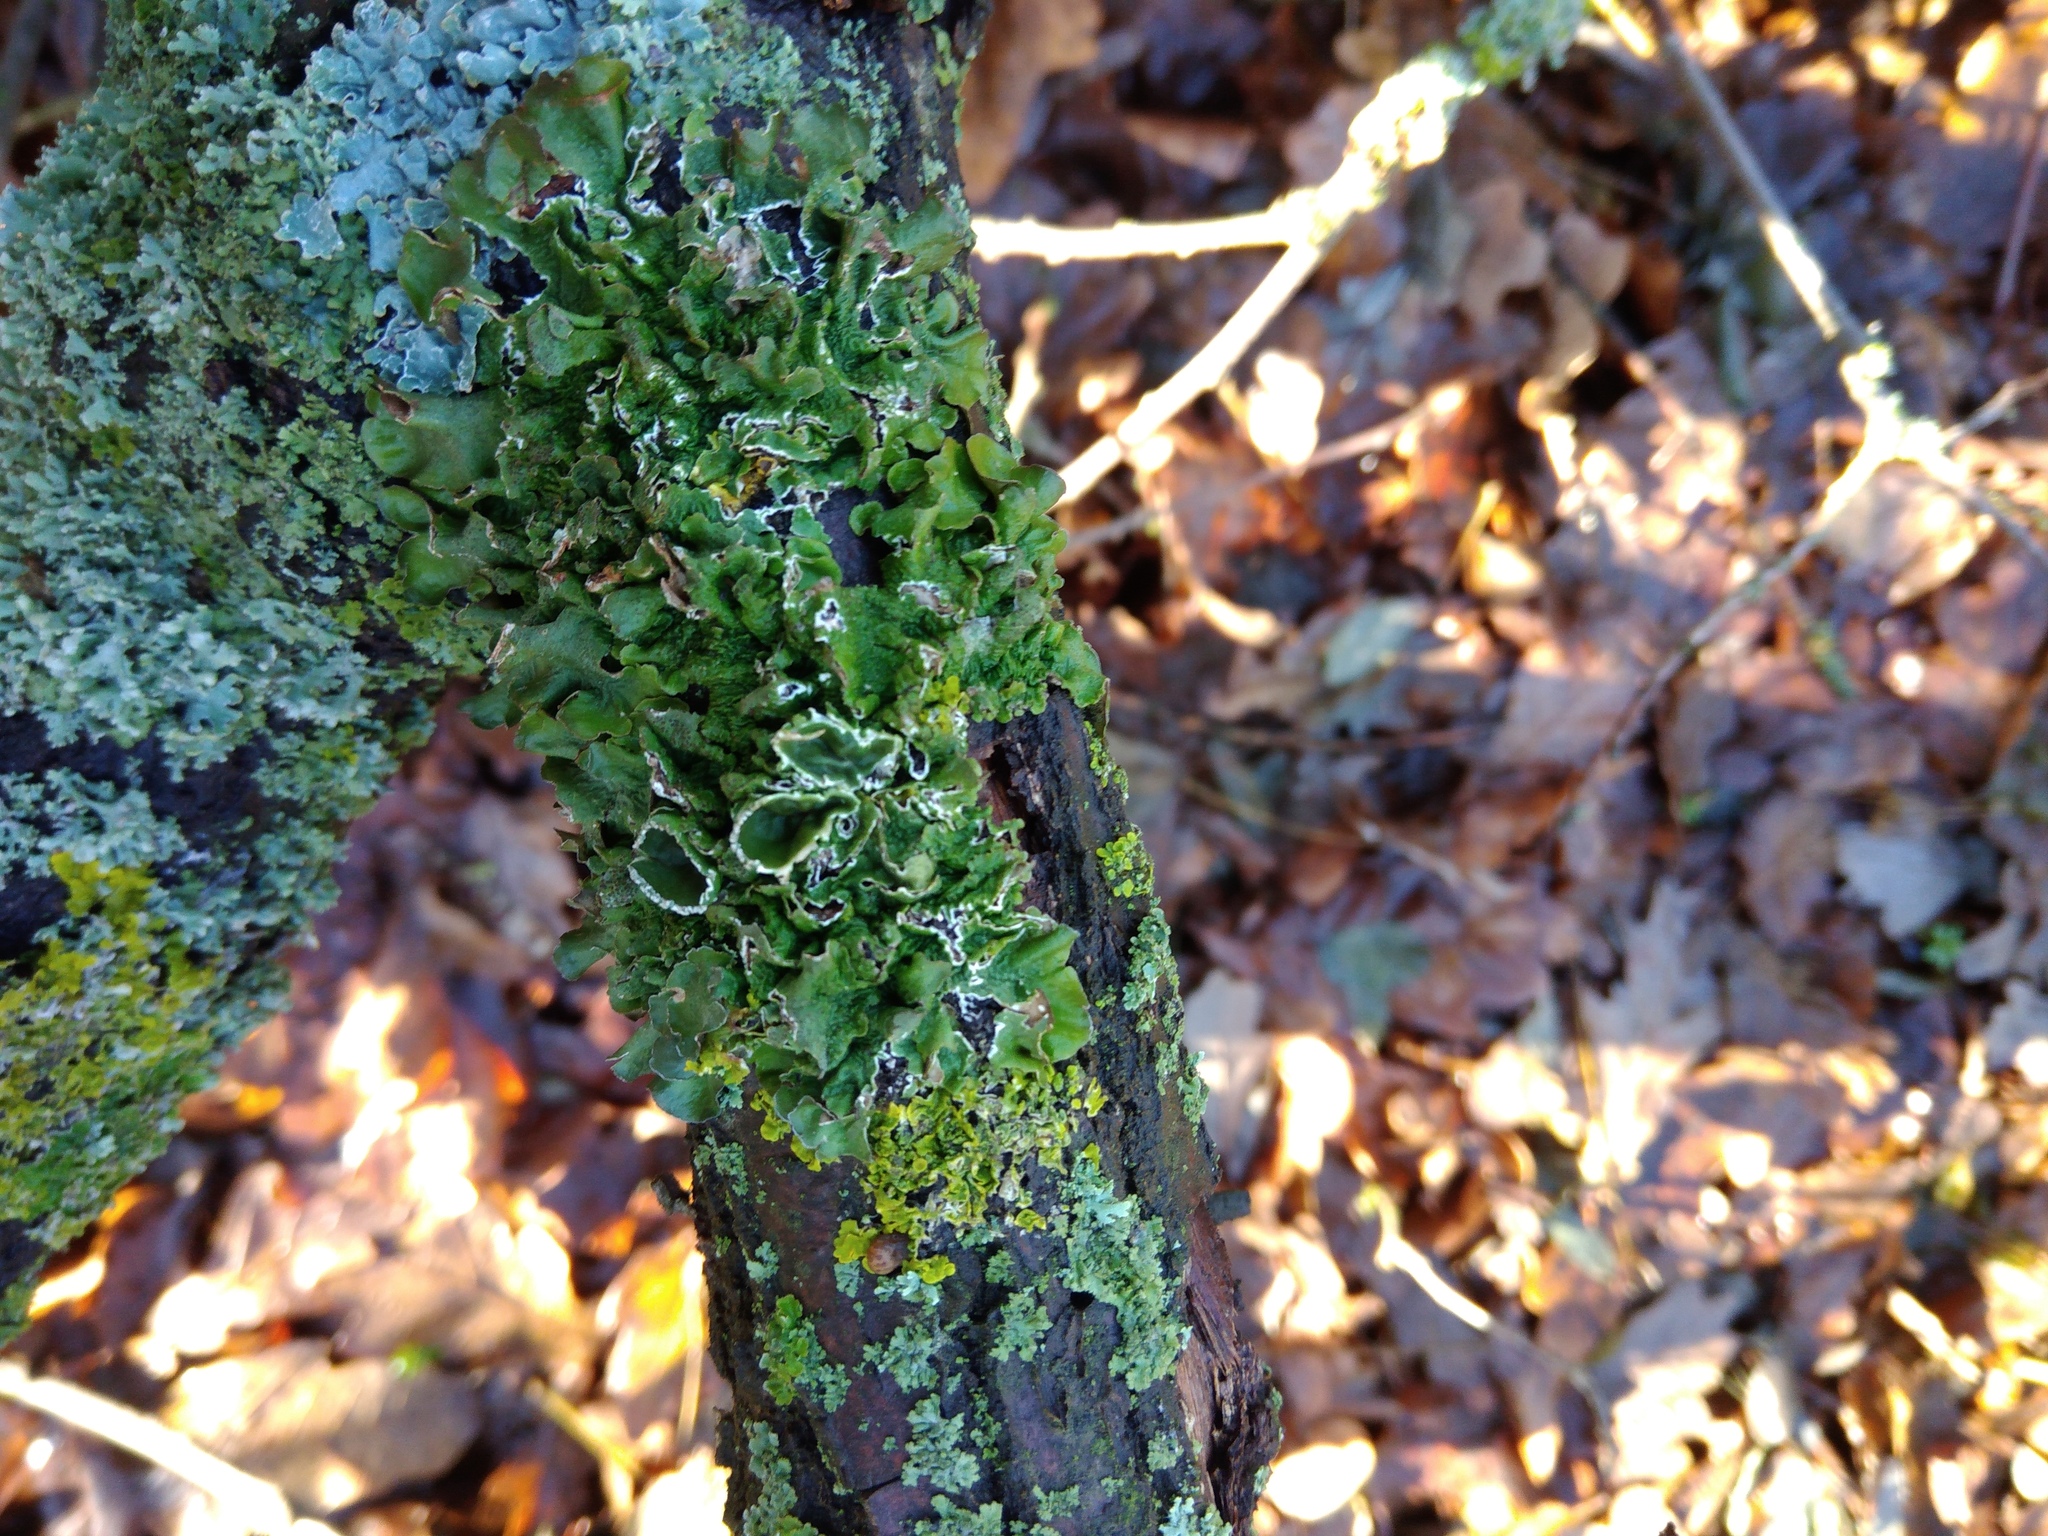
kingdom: Fungi
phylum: Ascomycota
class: Lecanoromycetes
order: Lecanorales
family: Parmeliaceae
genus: Pleurosticta
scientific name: Pleurosticta acetabulum
